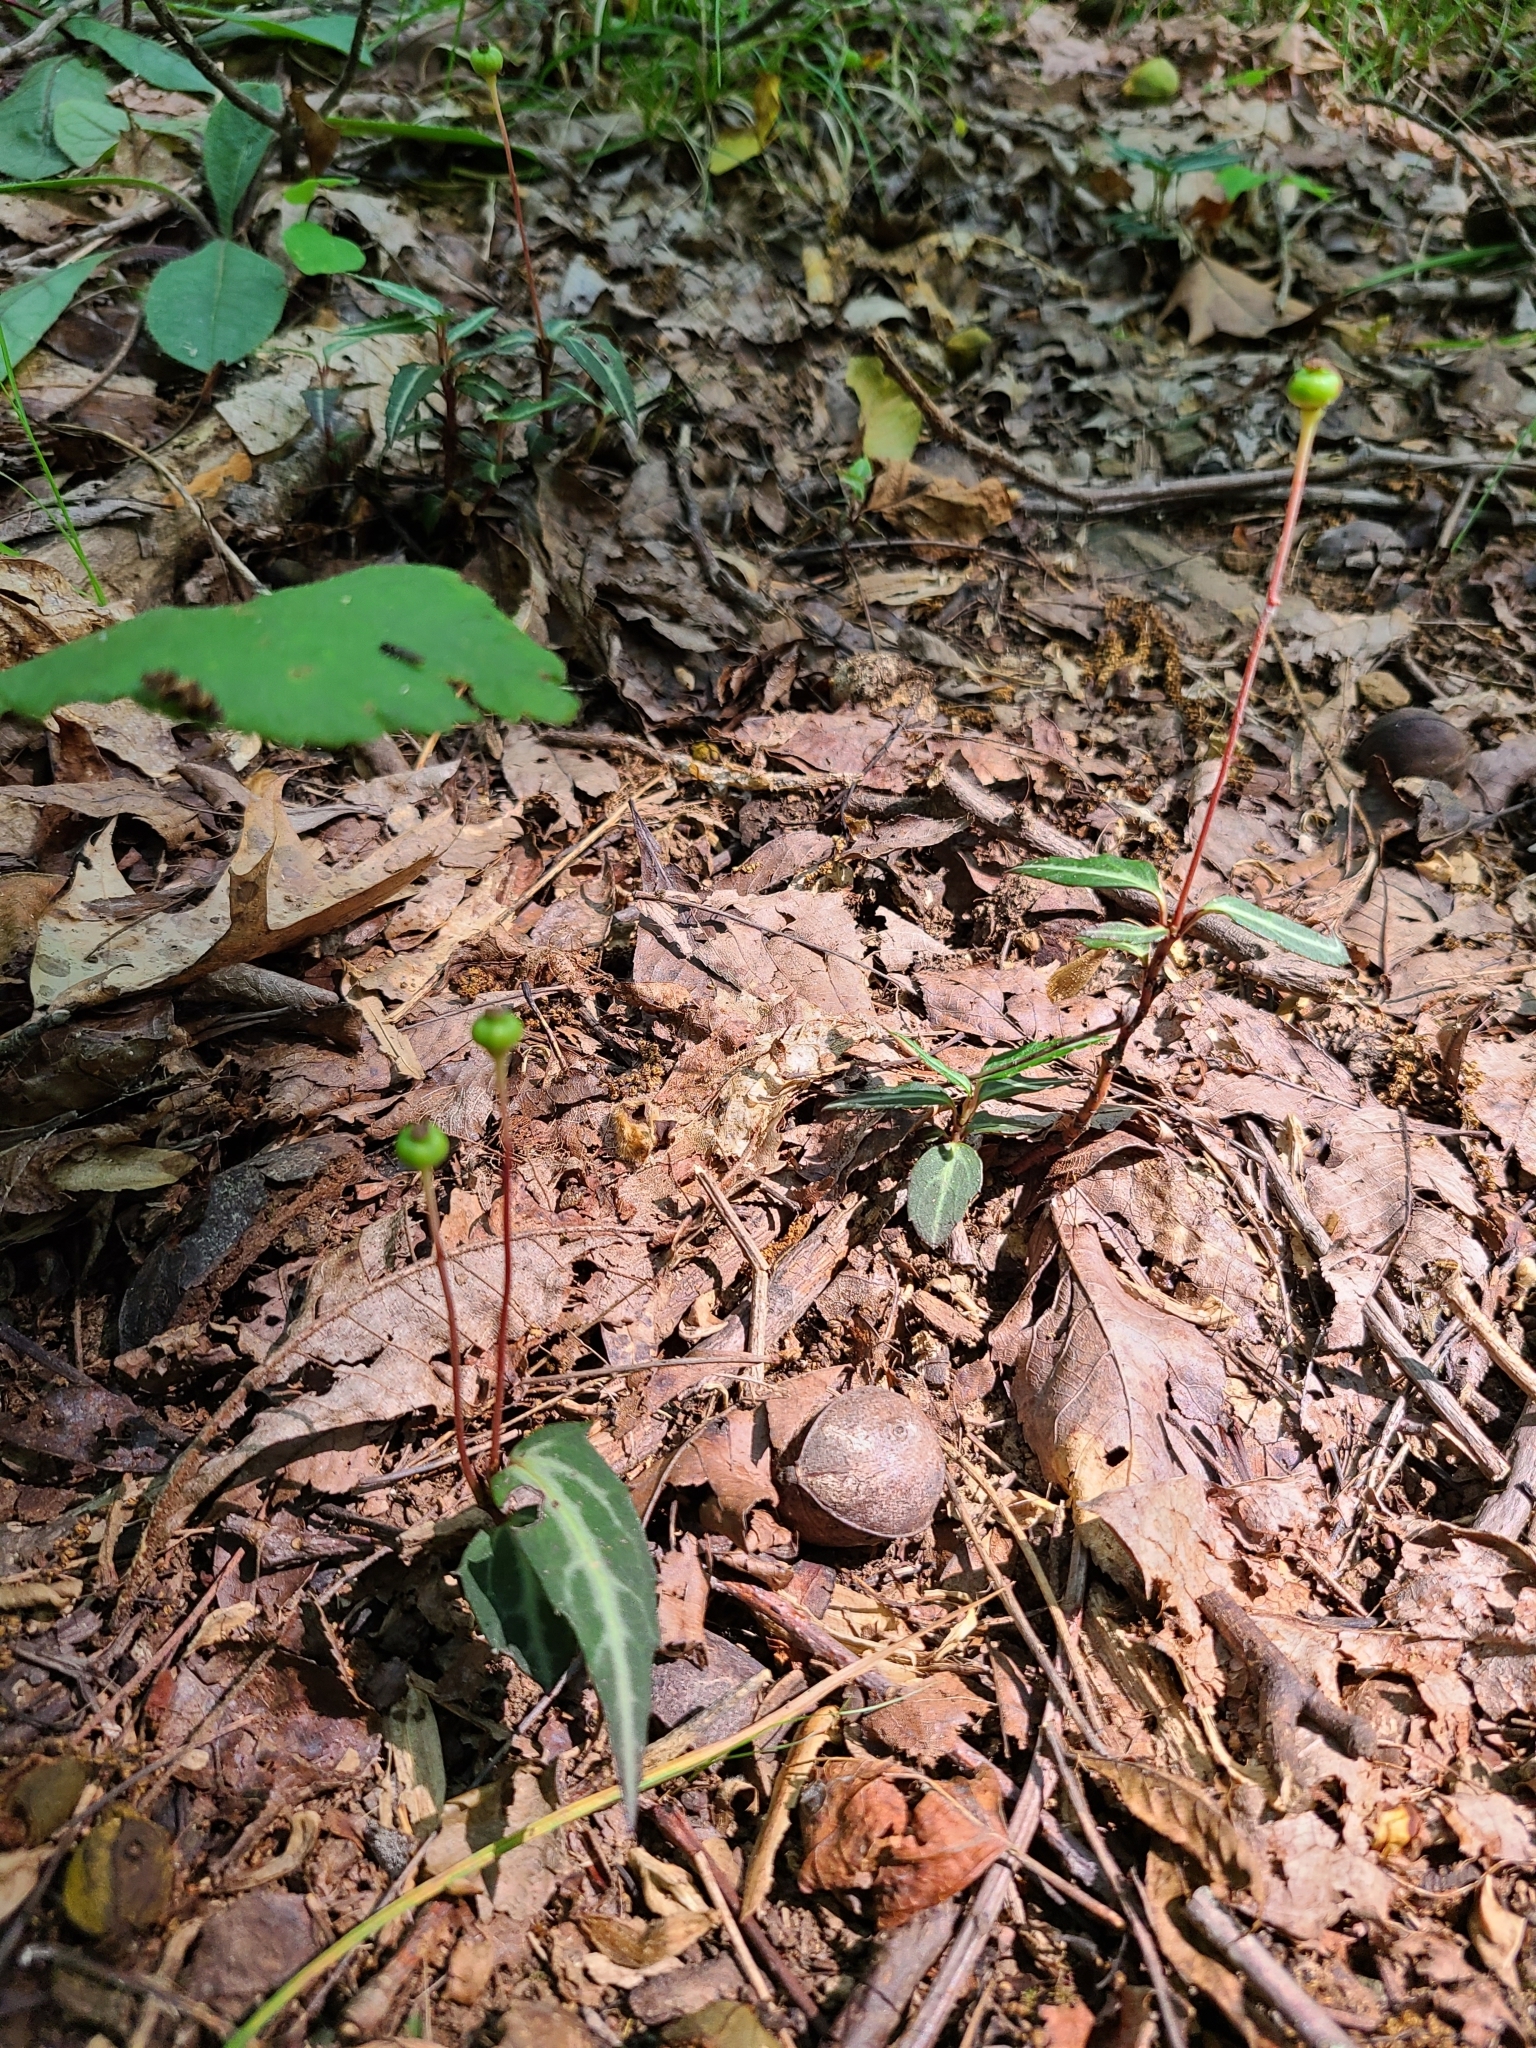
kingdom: Plantae
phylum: Tracheophyta
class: Magnoliopsida
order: Ericales
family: Ericaceae
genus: Chimaphila
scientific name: Chimaphila maculata
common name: Spotted pipsissewa
